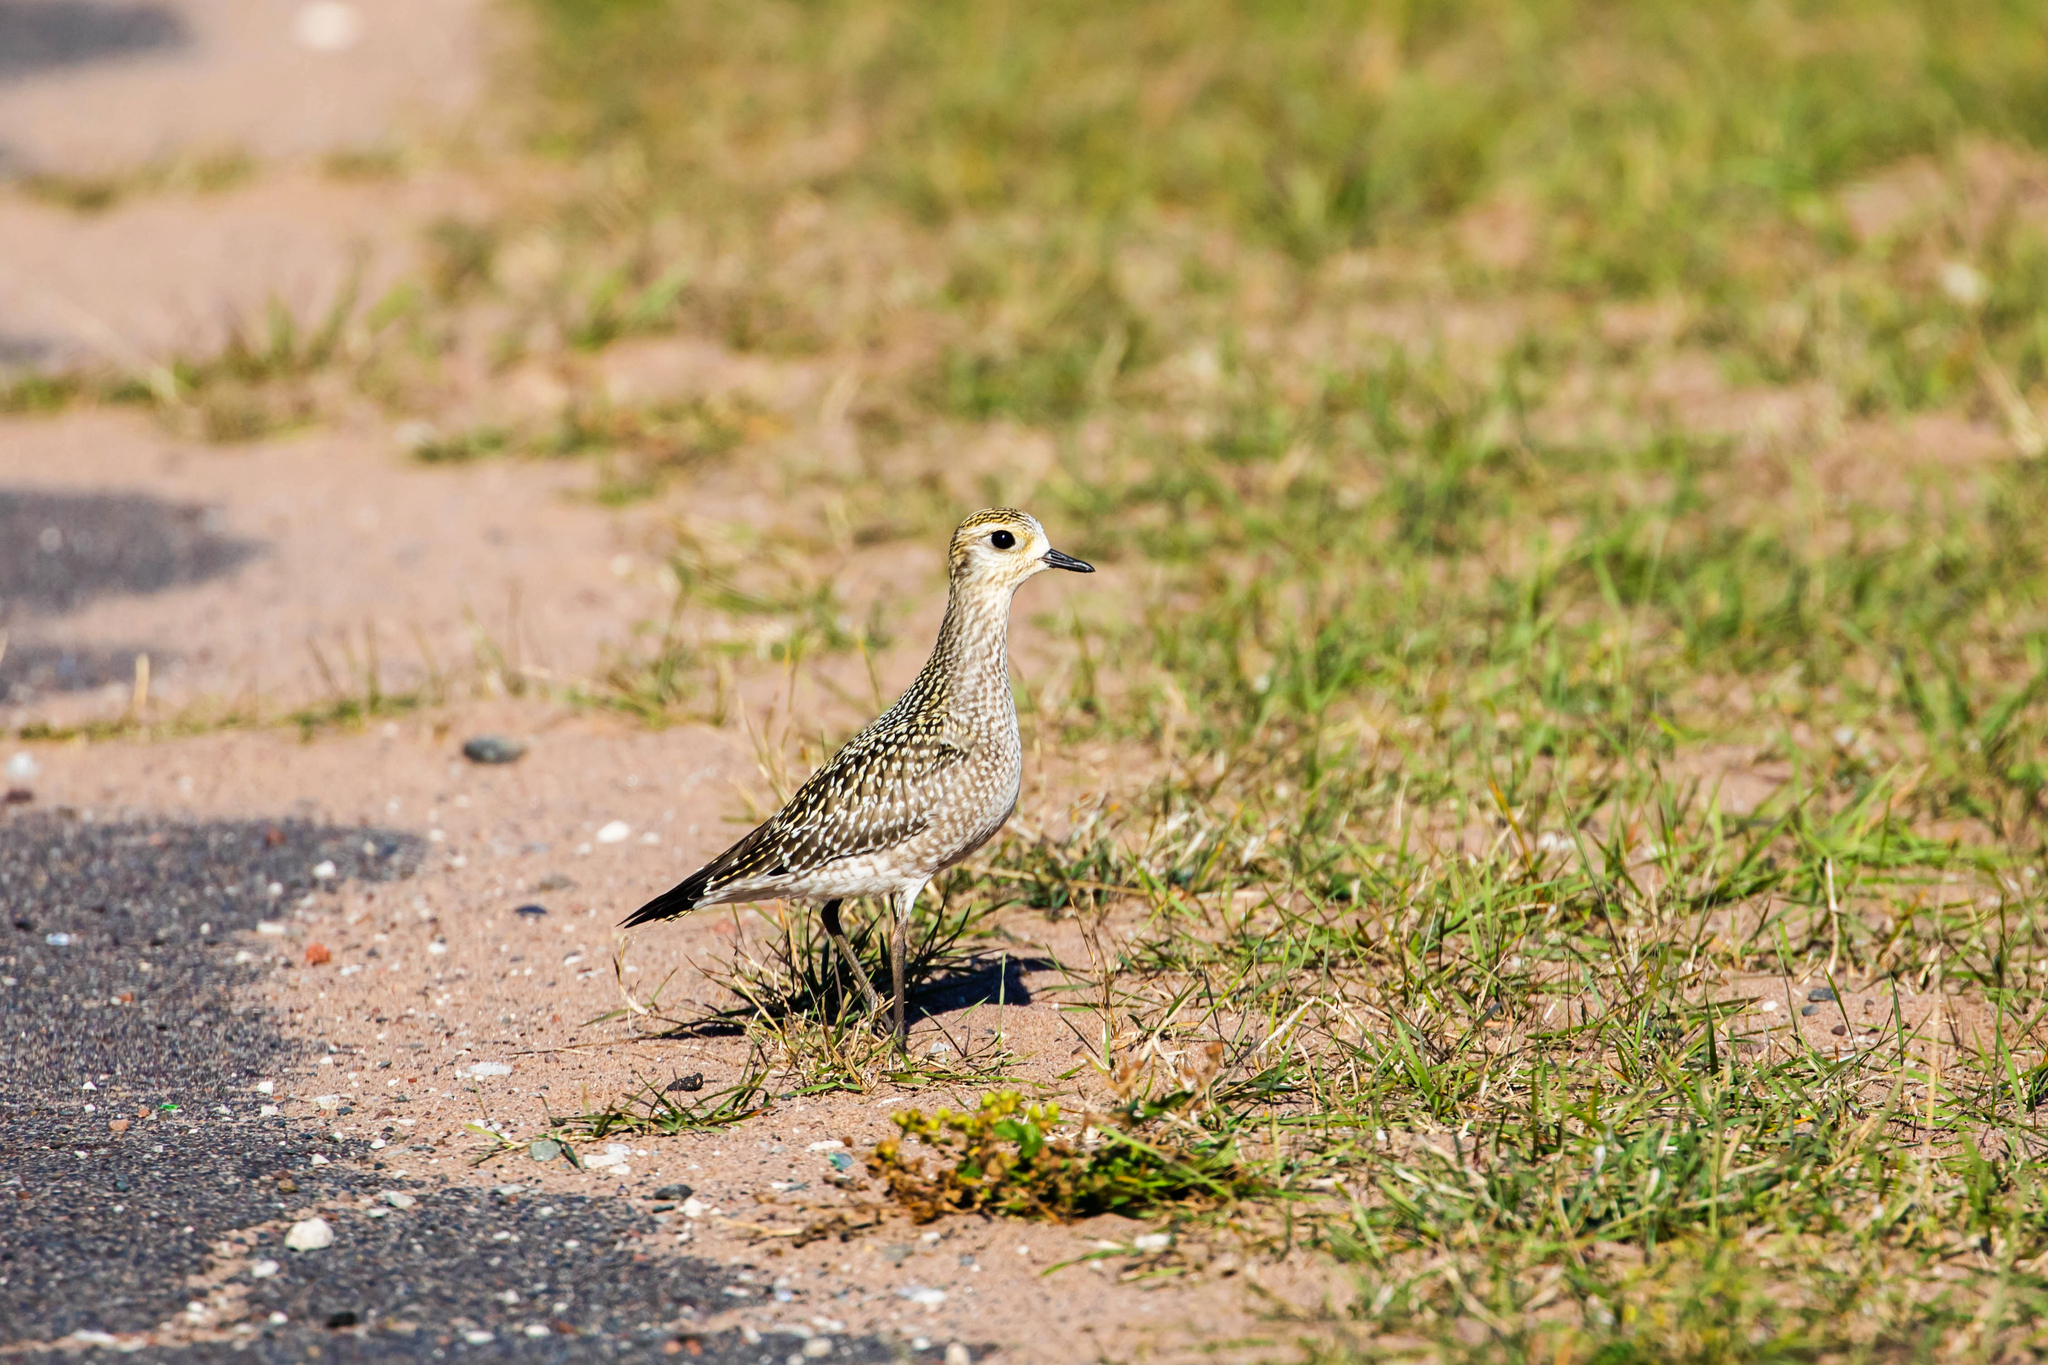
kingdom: Animalia
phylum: Chordata
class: Aves
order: Charadriiformes
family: Charadriidae
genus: Pluvialis
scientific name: Pluvialis dominica
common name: American golden plover
